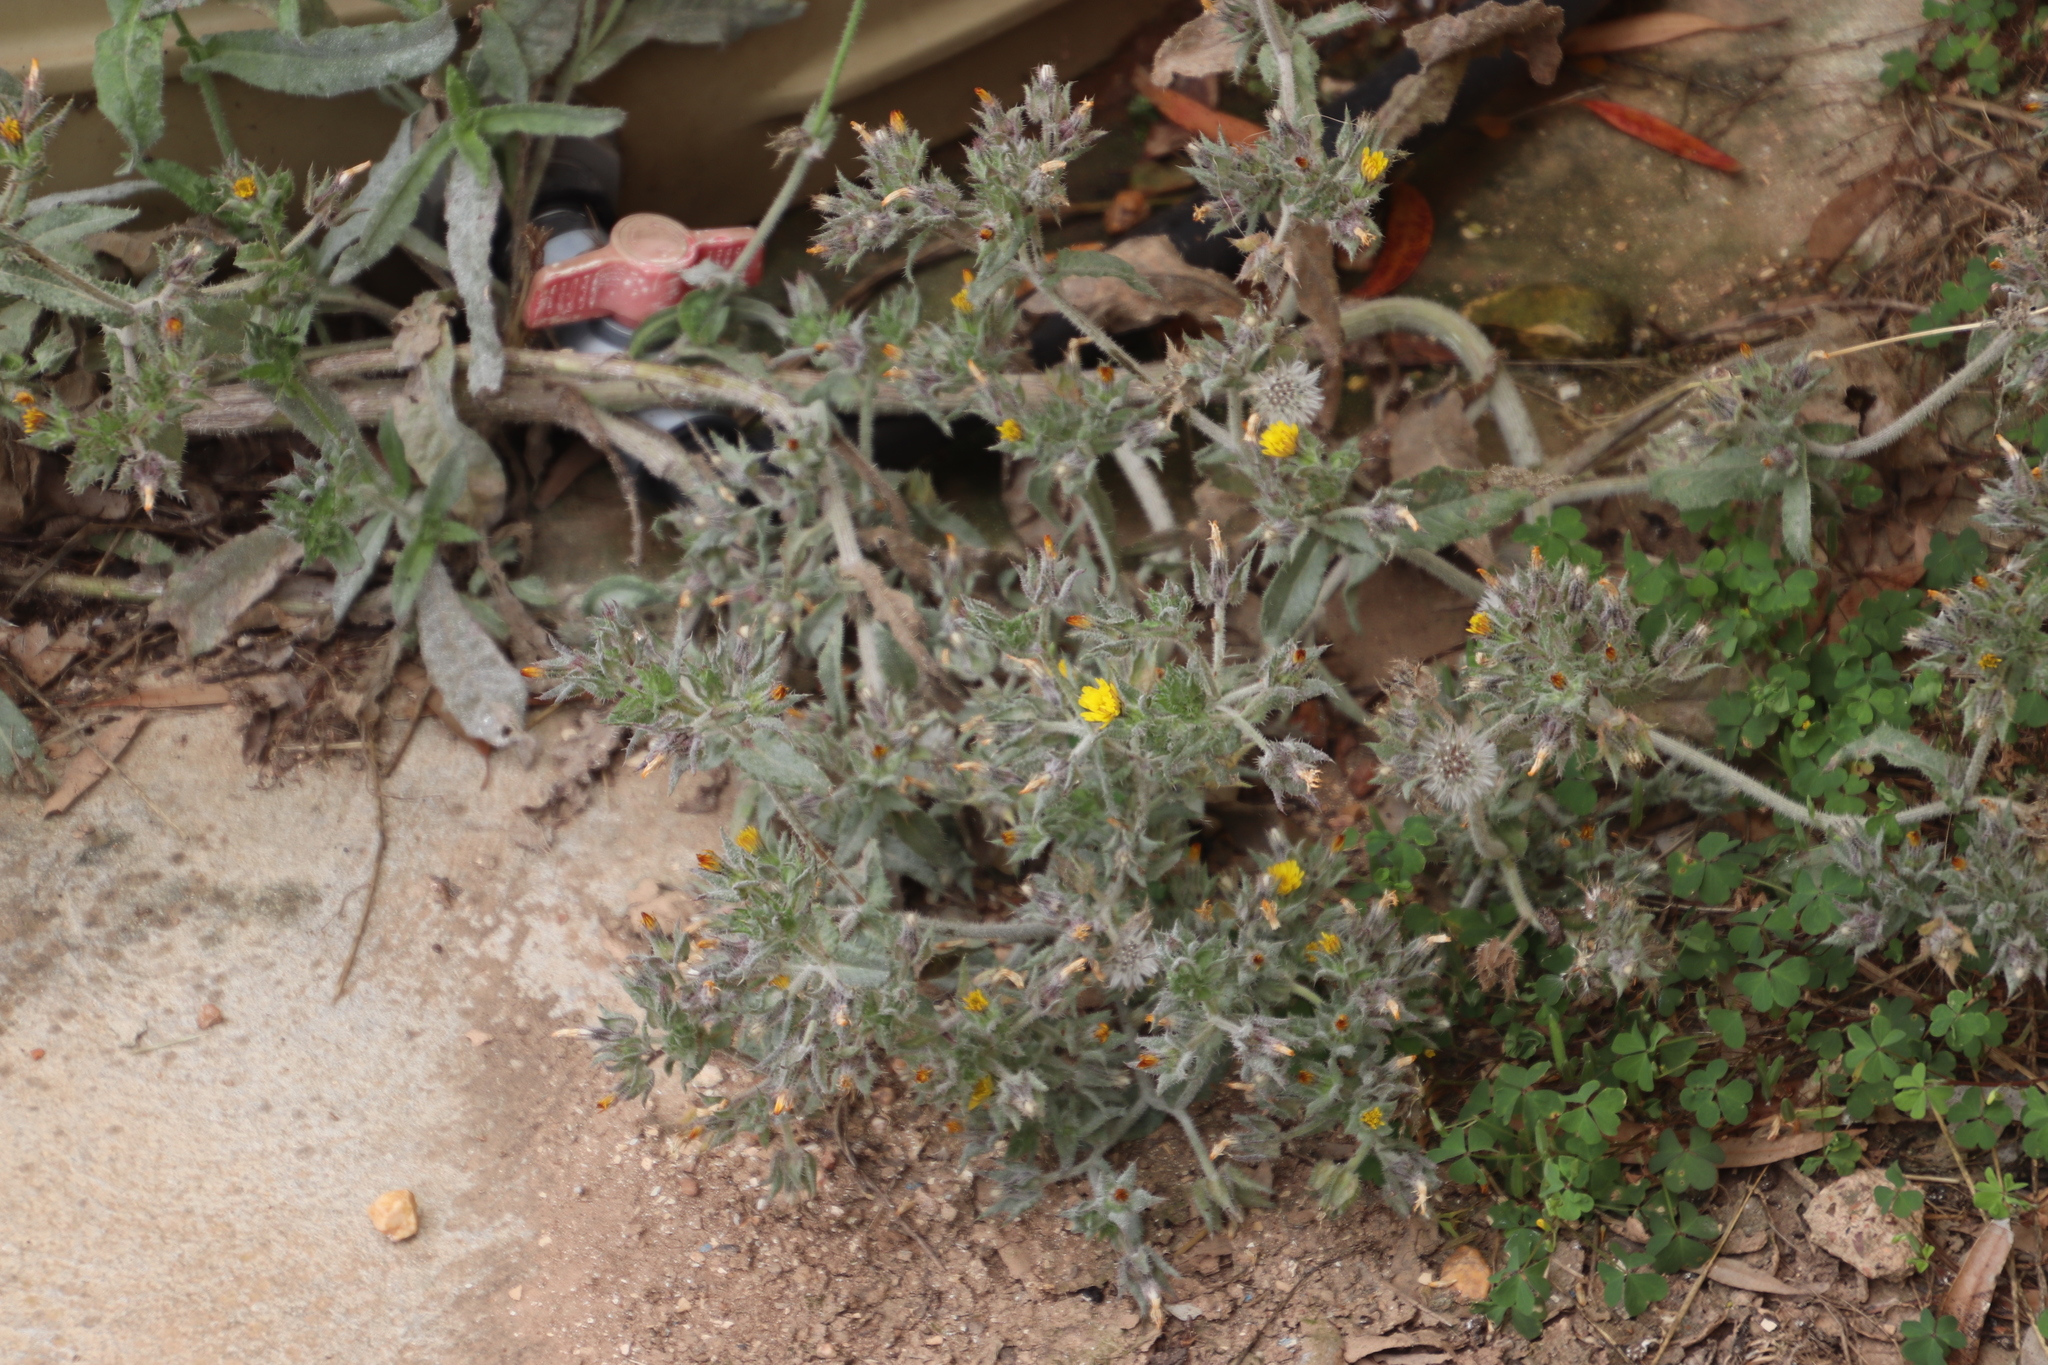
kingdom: Plantae
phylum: Tracheophyta
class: Magnoliopsida
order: Asterales
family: Asteraceae
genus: Helminthotheca
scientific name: Helminthotheca echioides
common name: Ox-tongue
